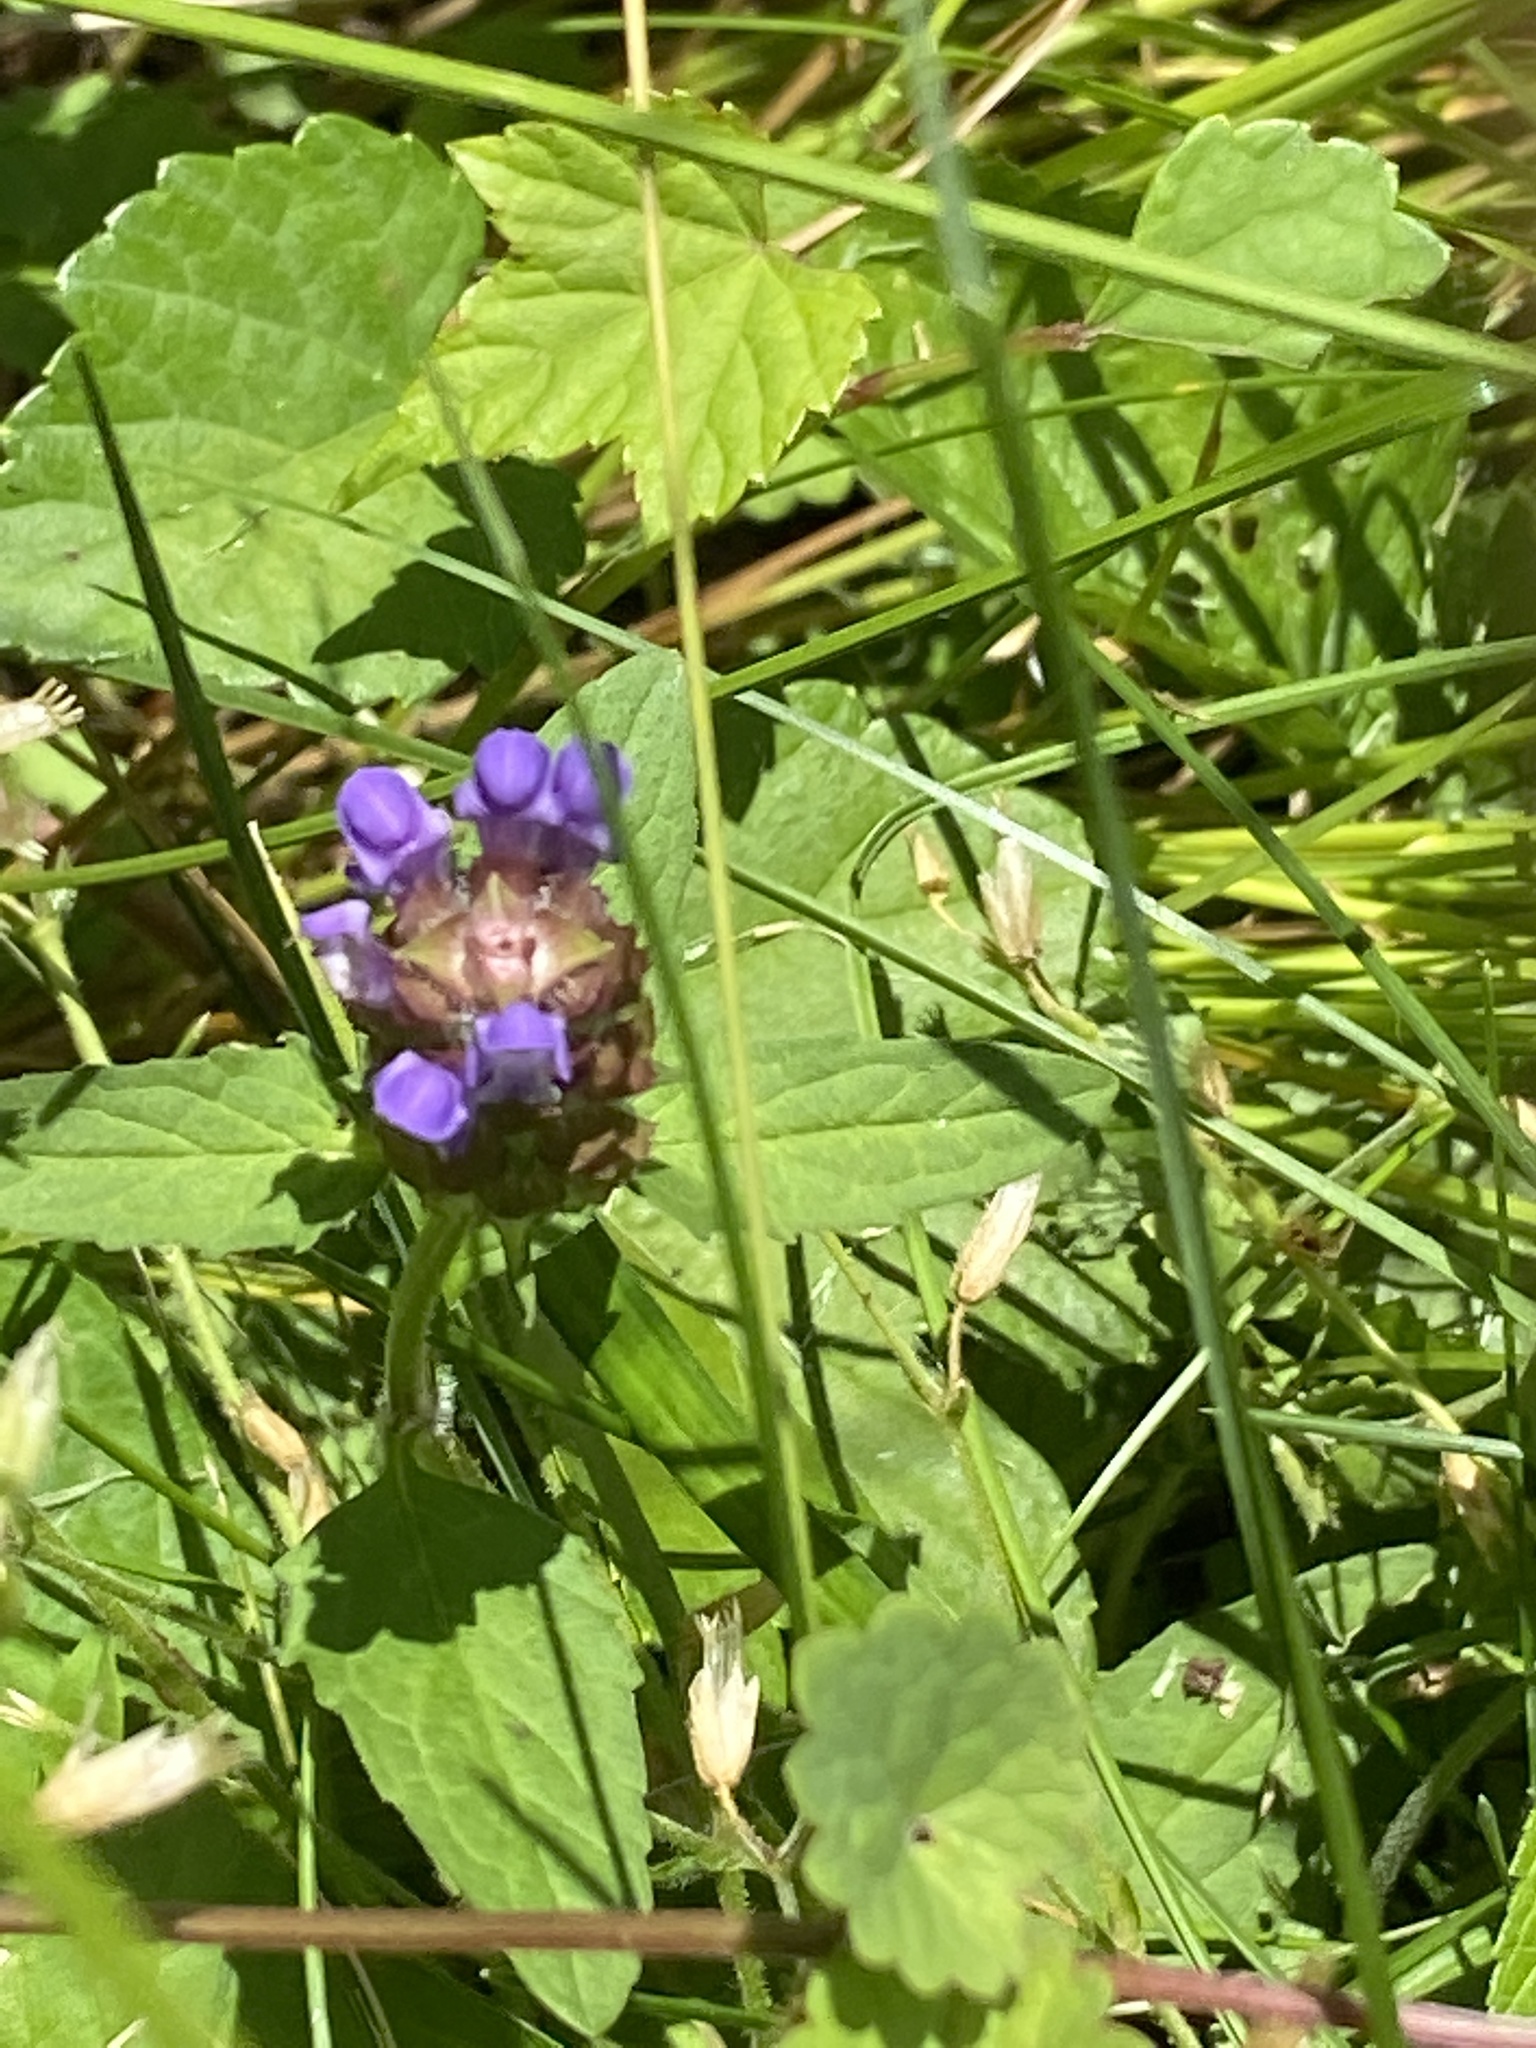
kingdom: Plantae
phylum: Tracheophyta
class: Magnoliopsida
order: Lamiales
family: Lamiaceae
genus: Prunella
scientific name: Prunella vulgaris
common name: Heal-all
